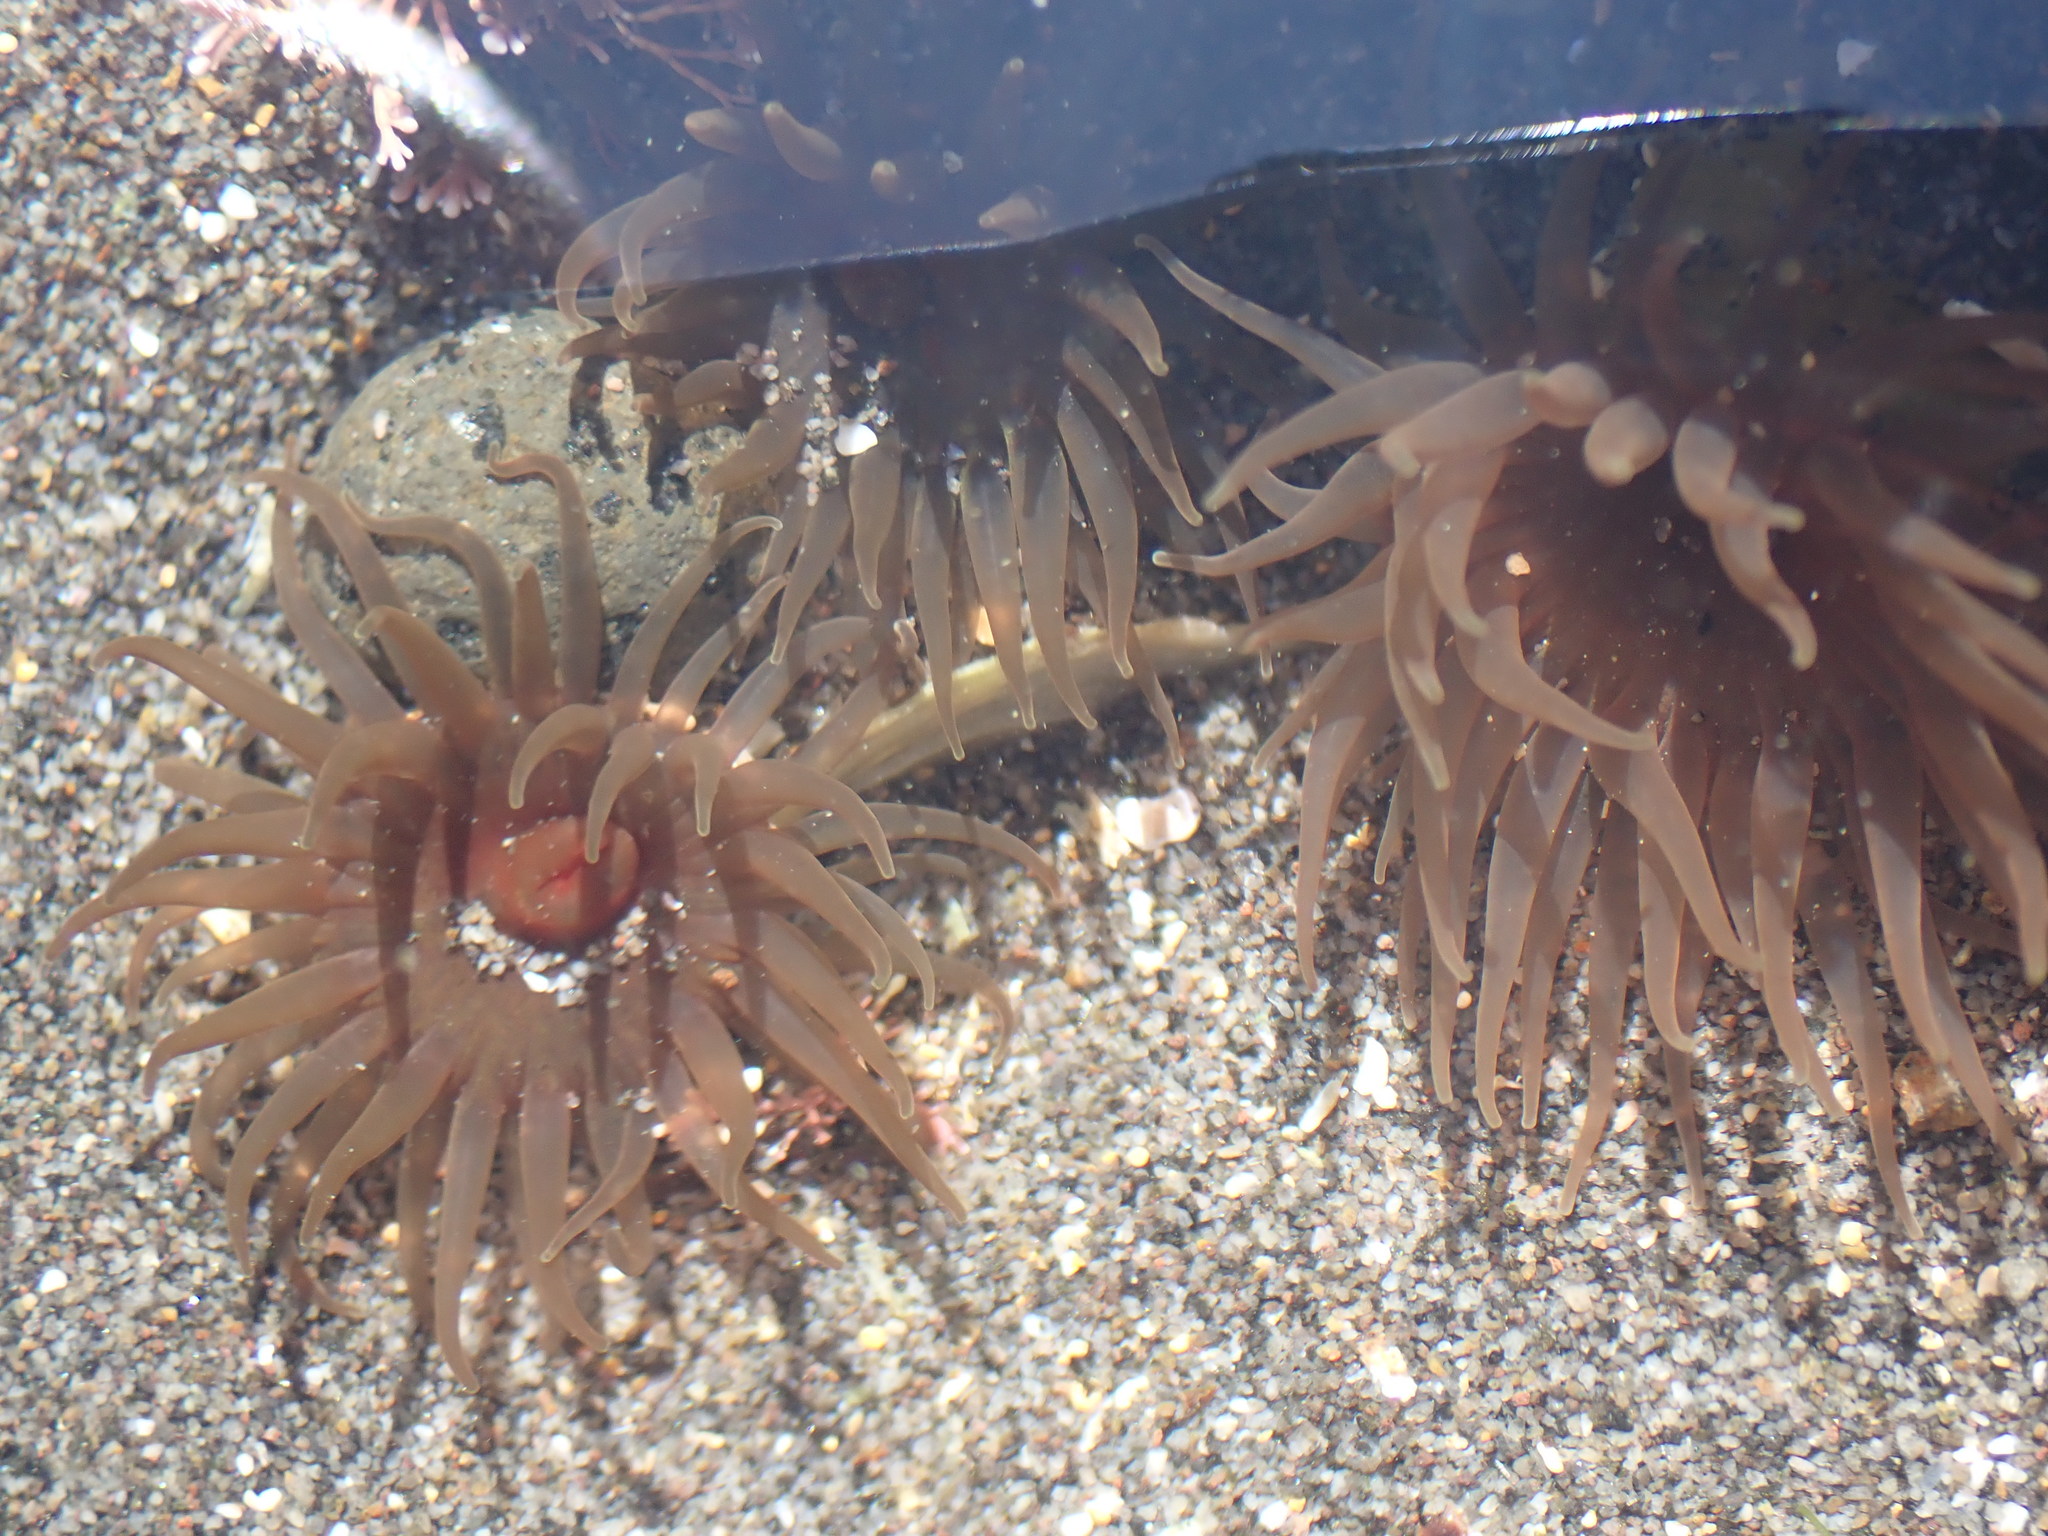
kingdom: Animalia
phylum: Cnidaria
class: Anthozoa
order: Actiniaria
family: Actiniidae
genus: Isactinia
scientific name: Isactinia olivacea
